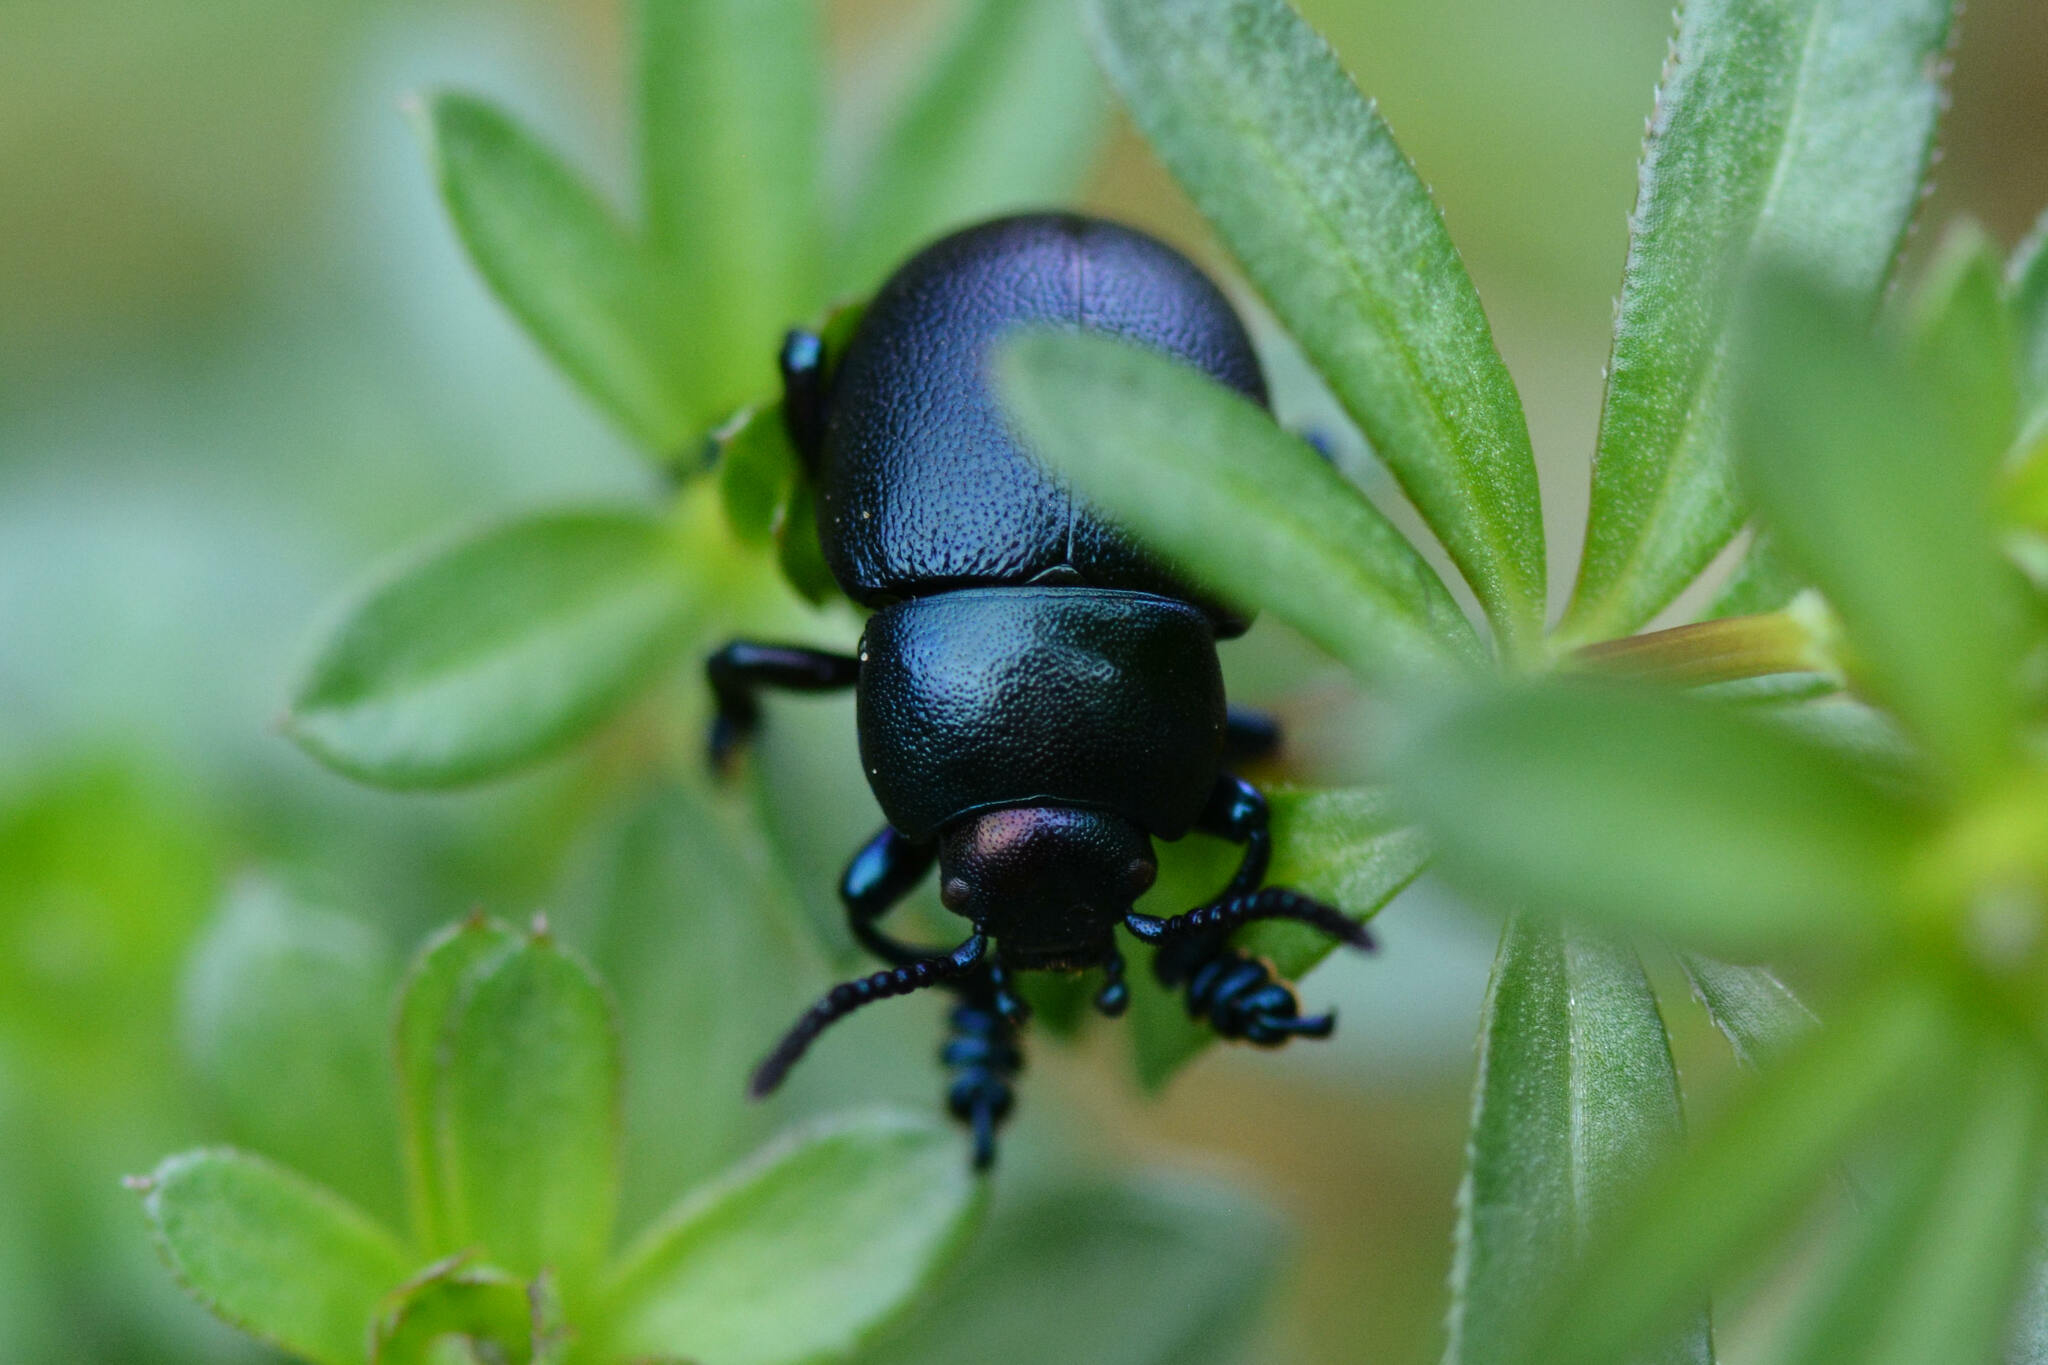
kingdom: Animalia
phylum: Arthropoda
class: Insecta
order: Coleoptera
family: Chrysomelidae
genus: Timarcha
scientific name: Timarcha goettingensis
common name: Small bloody-nosed beetle
